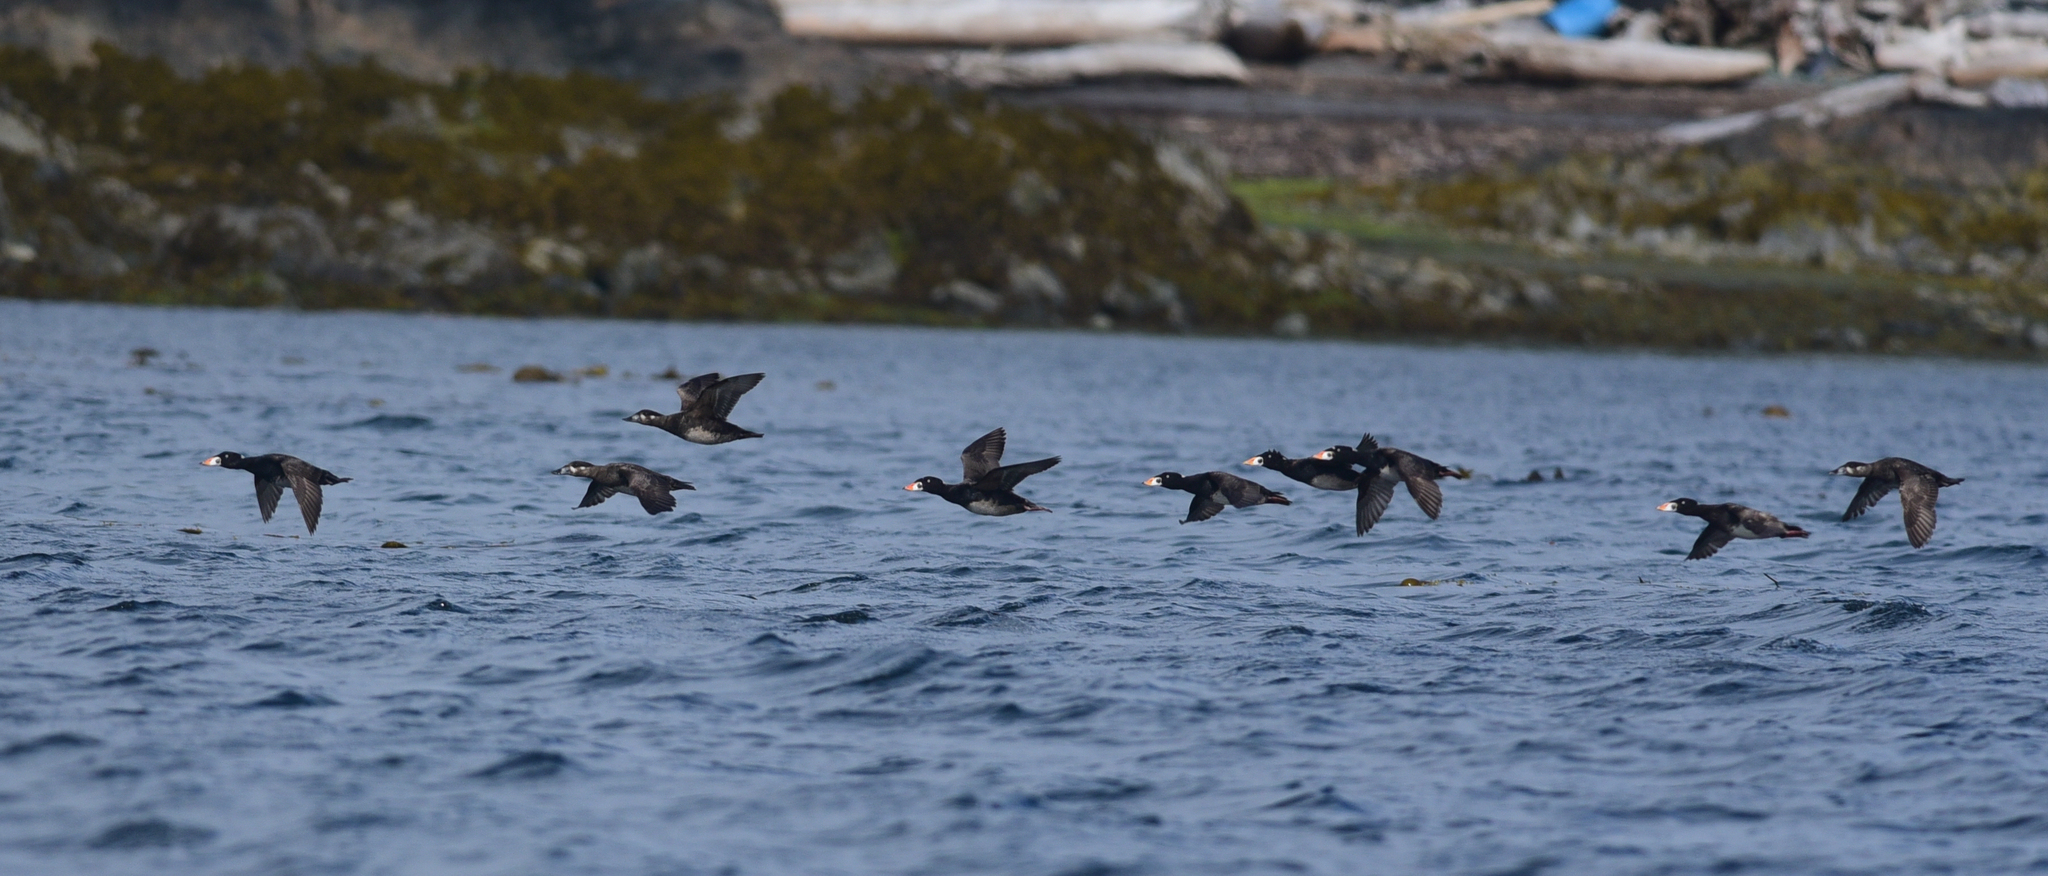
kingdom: Animalia
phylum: Chordata
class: Aves
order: Anseriformes
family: Anatidae
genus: Melanitta
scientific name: Melanitta perspicillata
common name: Surf scoter
